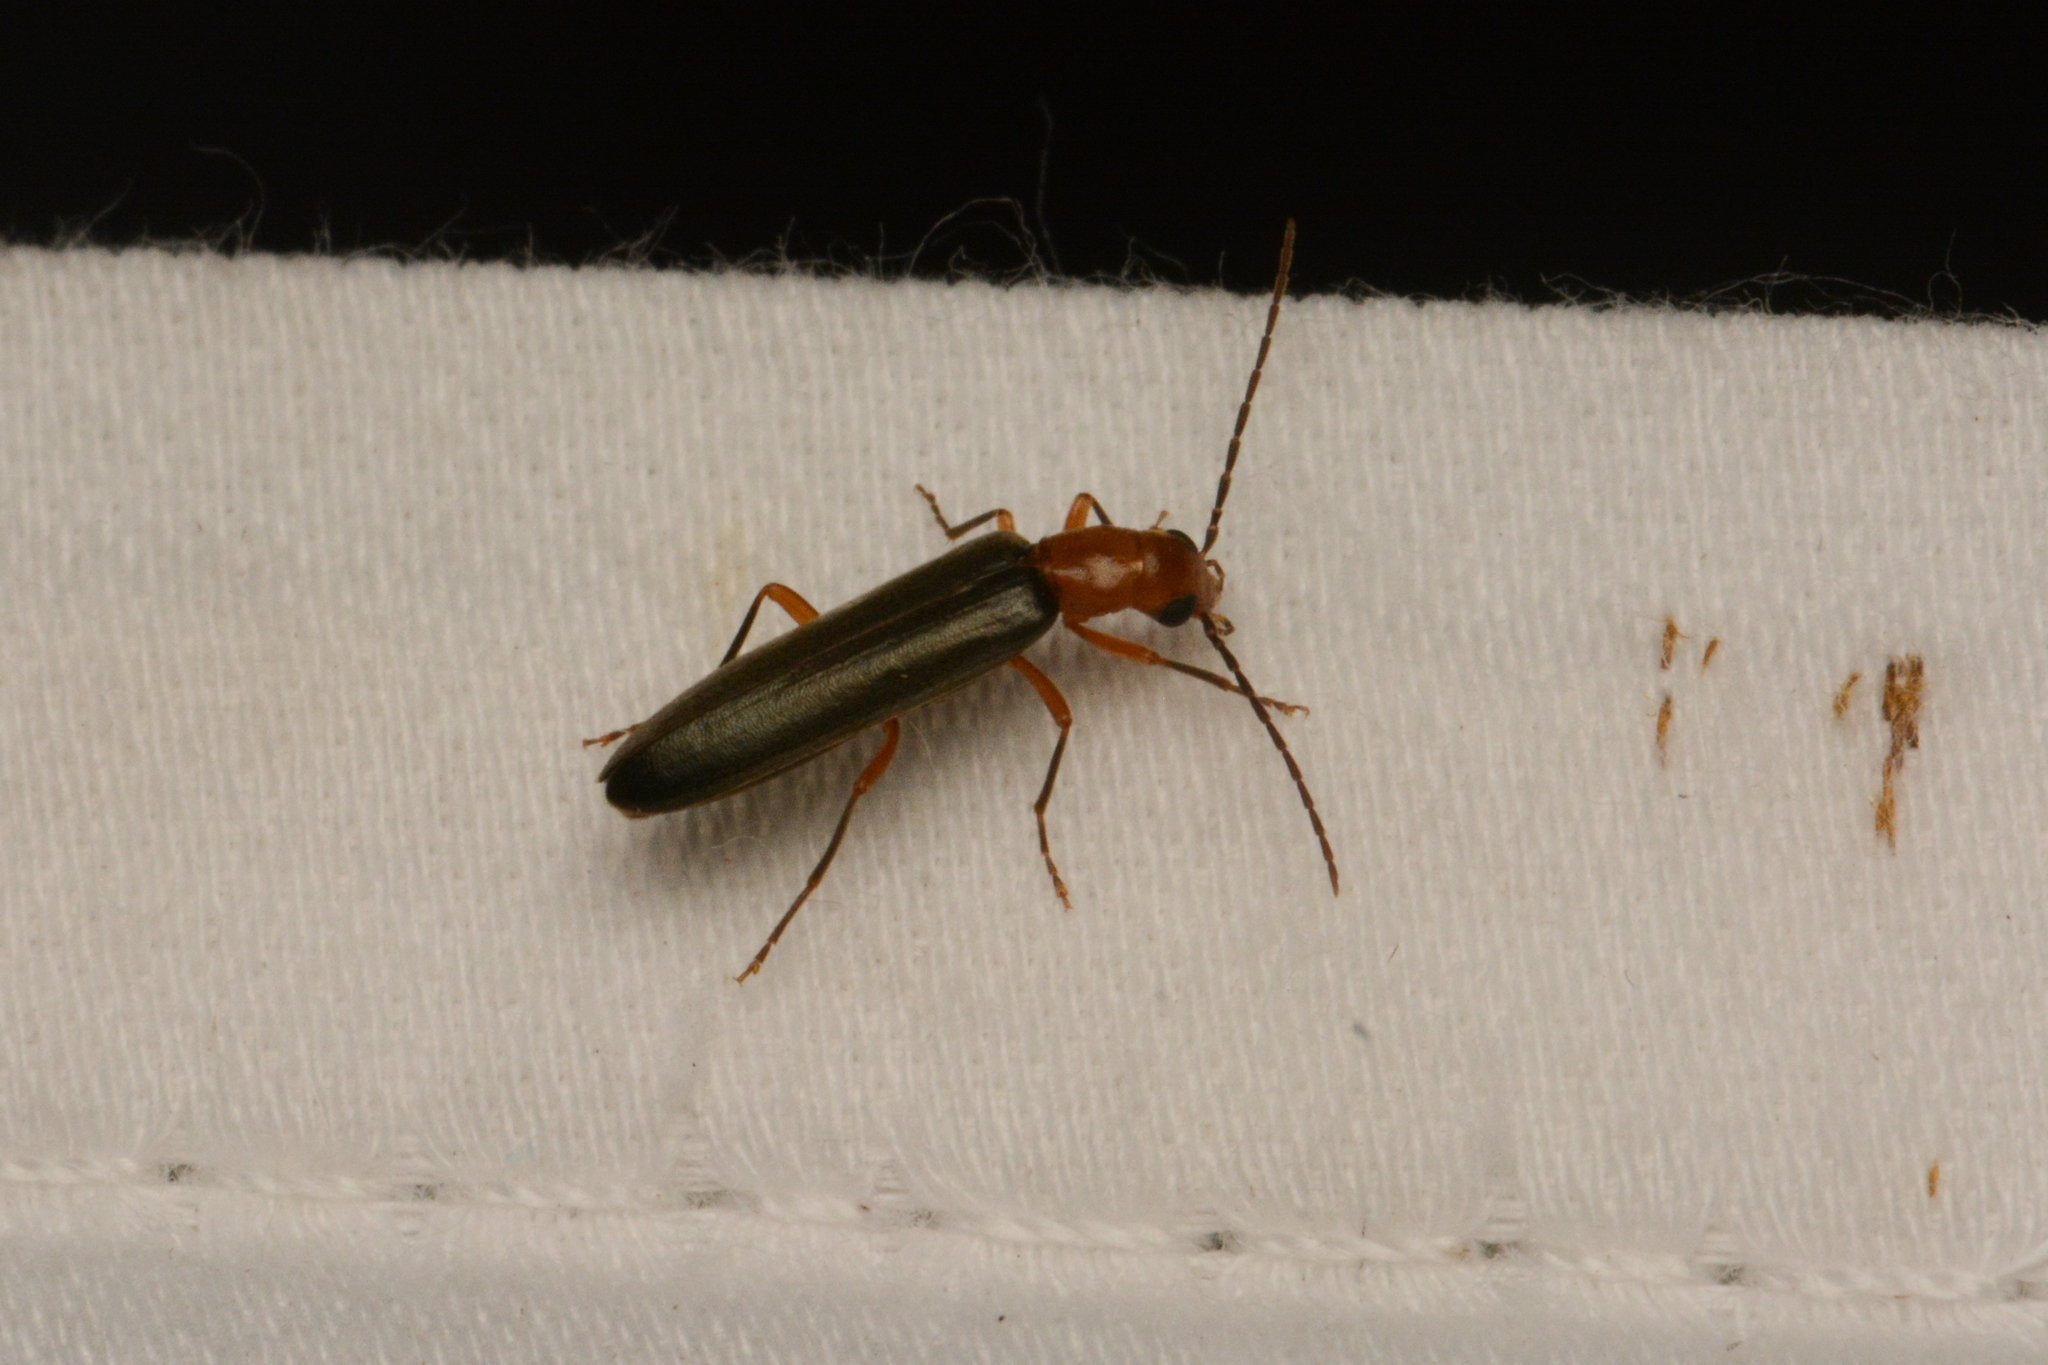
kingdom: Animalia
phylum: Arthropoda
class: Insecta
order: Coleoptera
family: Oedemeridae
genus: Xanthochroina
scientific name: Xanthochroina bicolor
